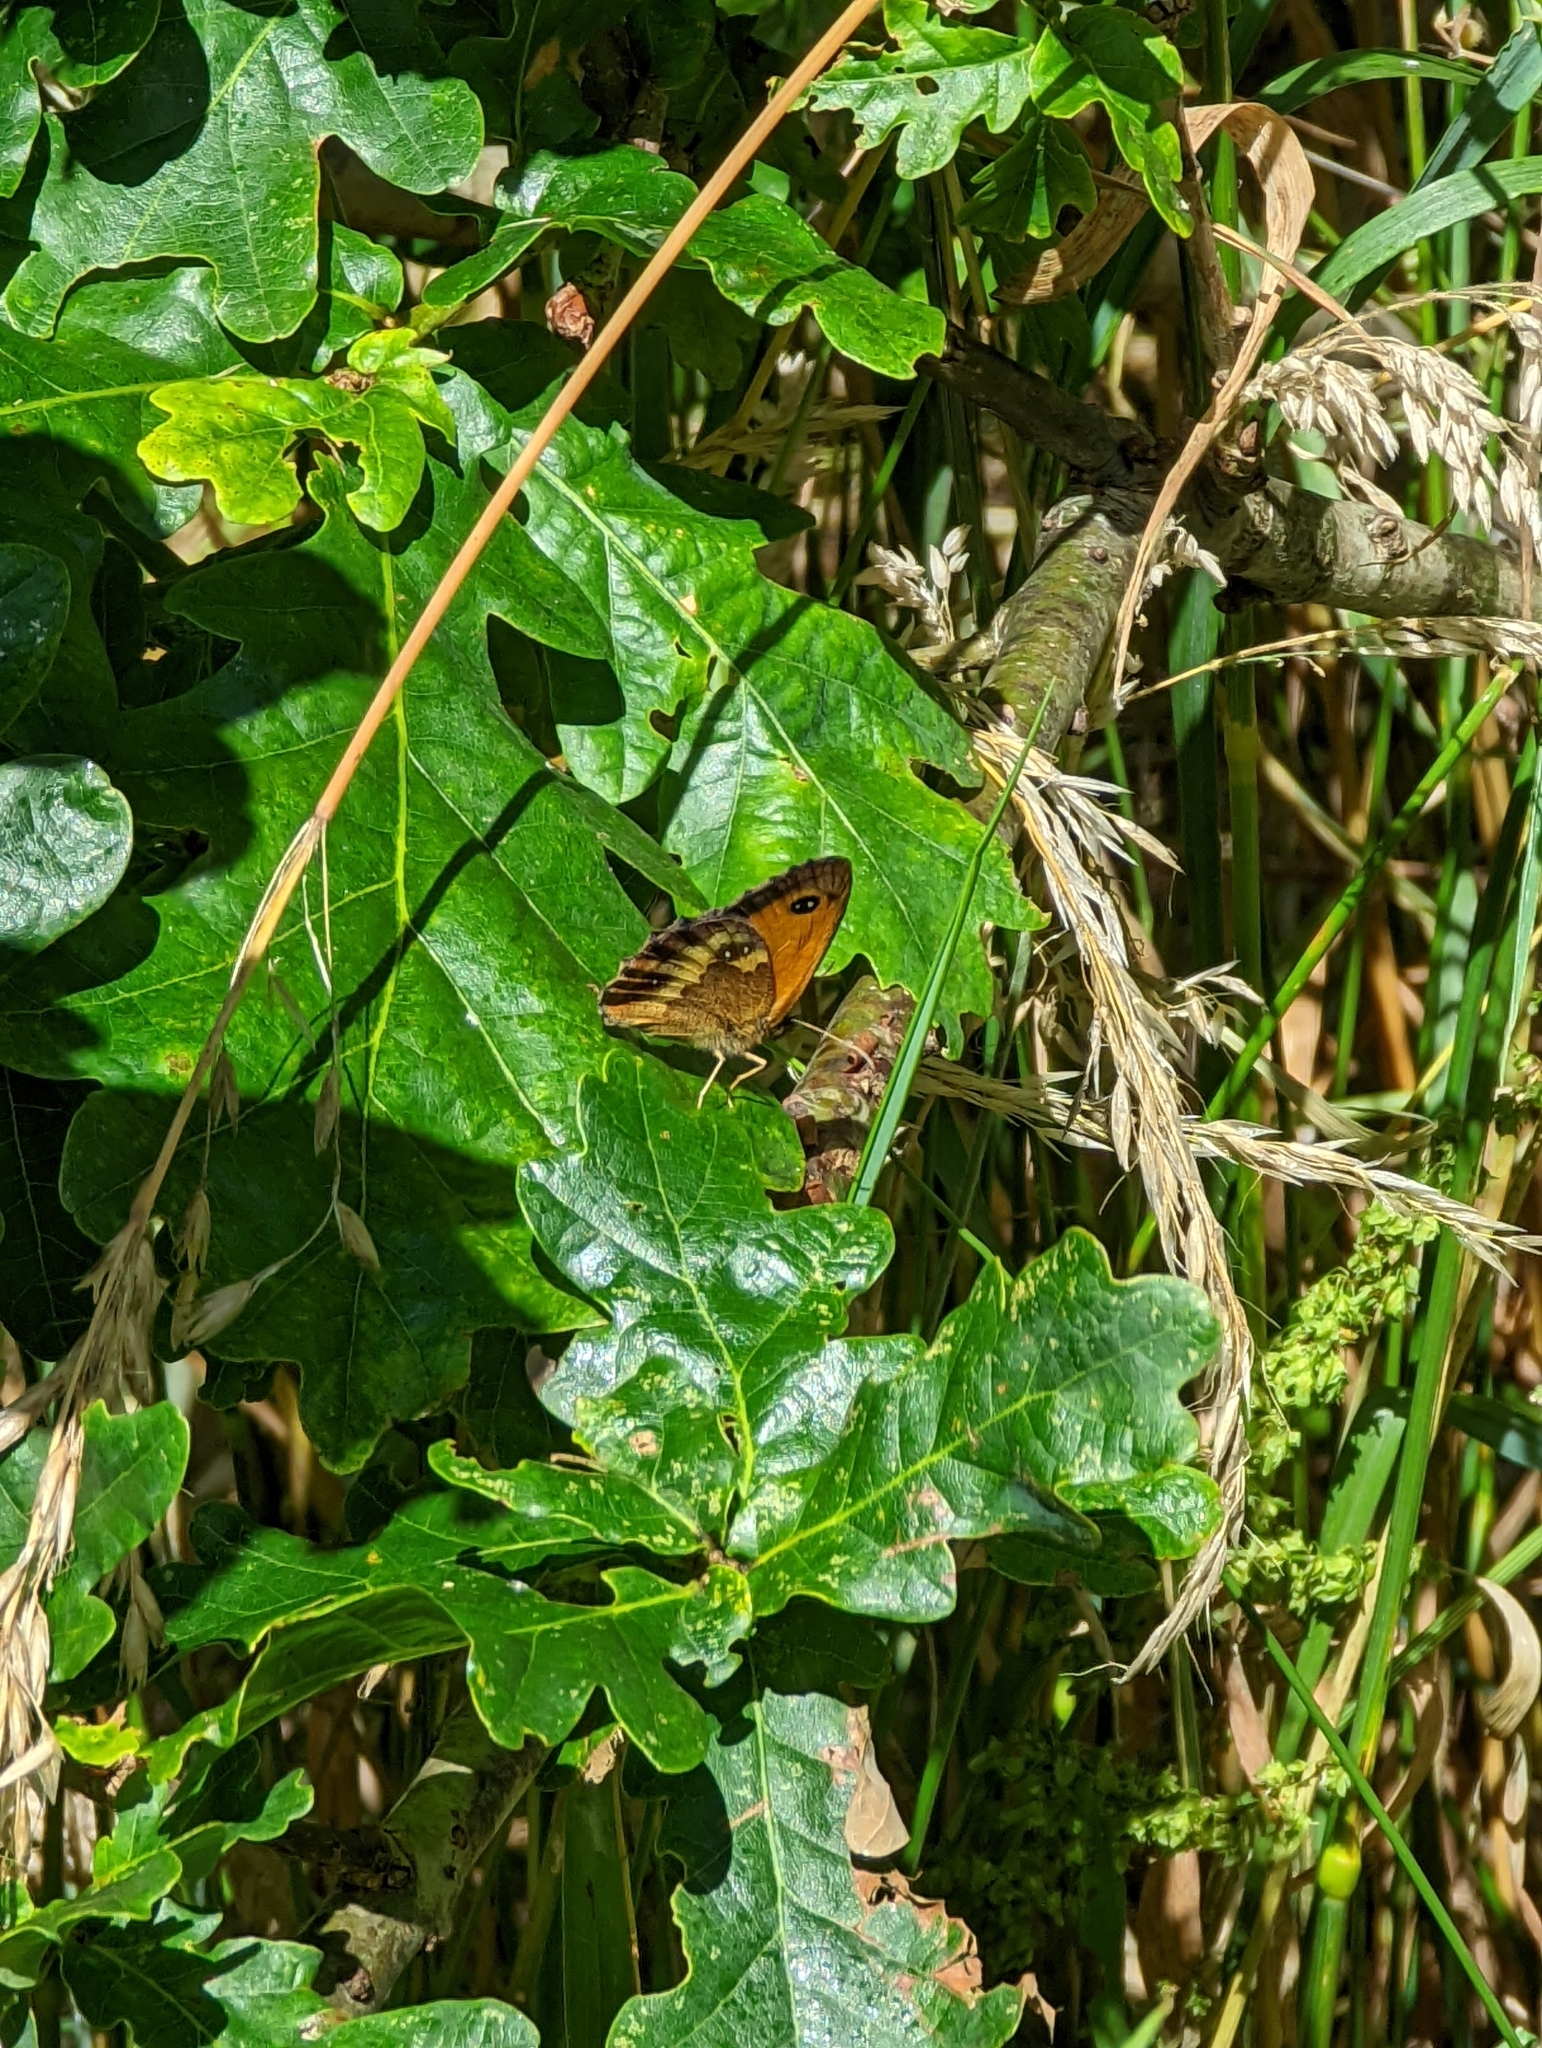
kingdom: Animalia
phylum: Arthropoda
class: Insecta
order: Lepidoptera
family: Nymphalidae
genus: Pyronia
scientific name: Pyronia tithonus
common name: Gatekeeper
